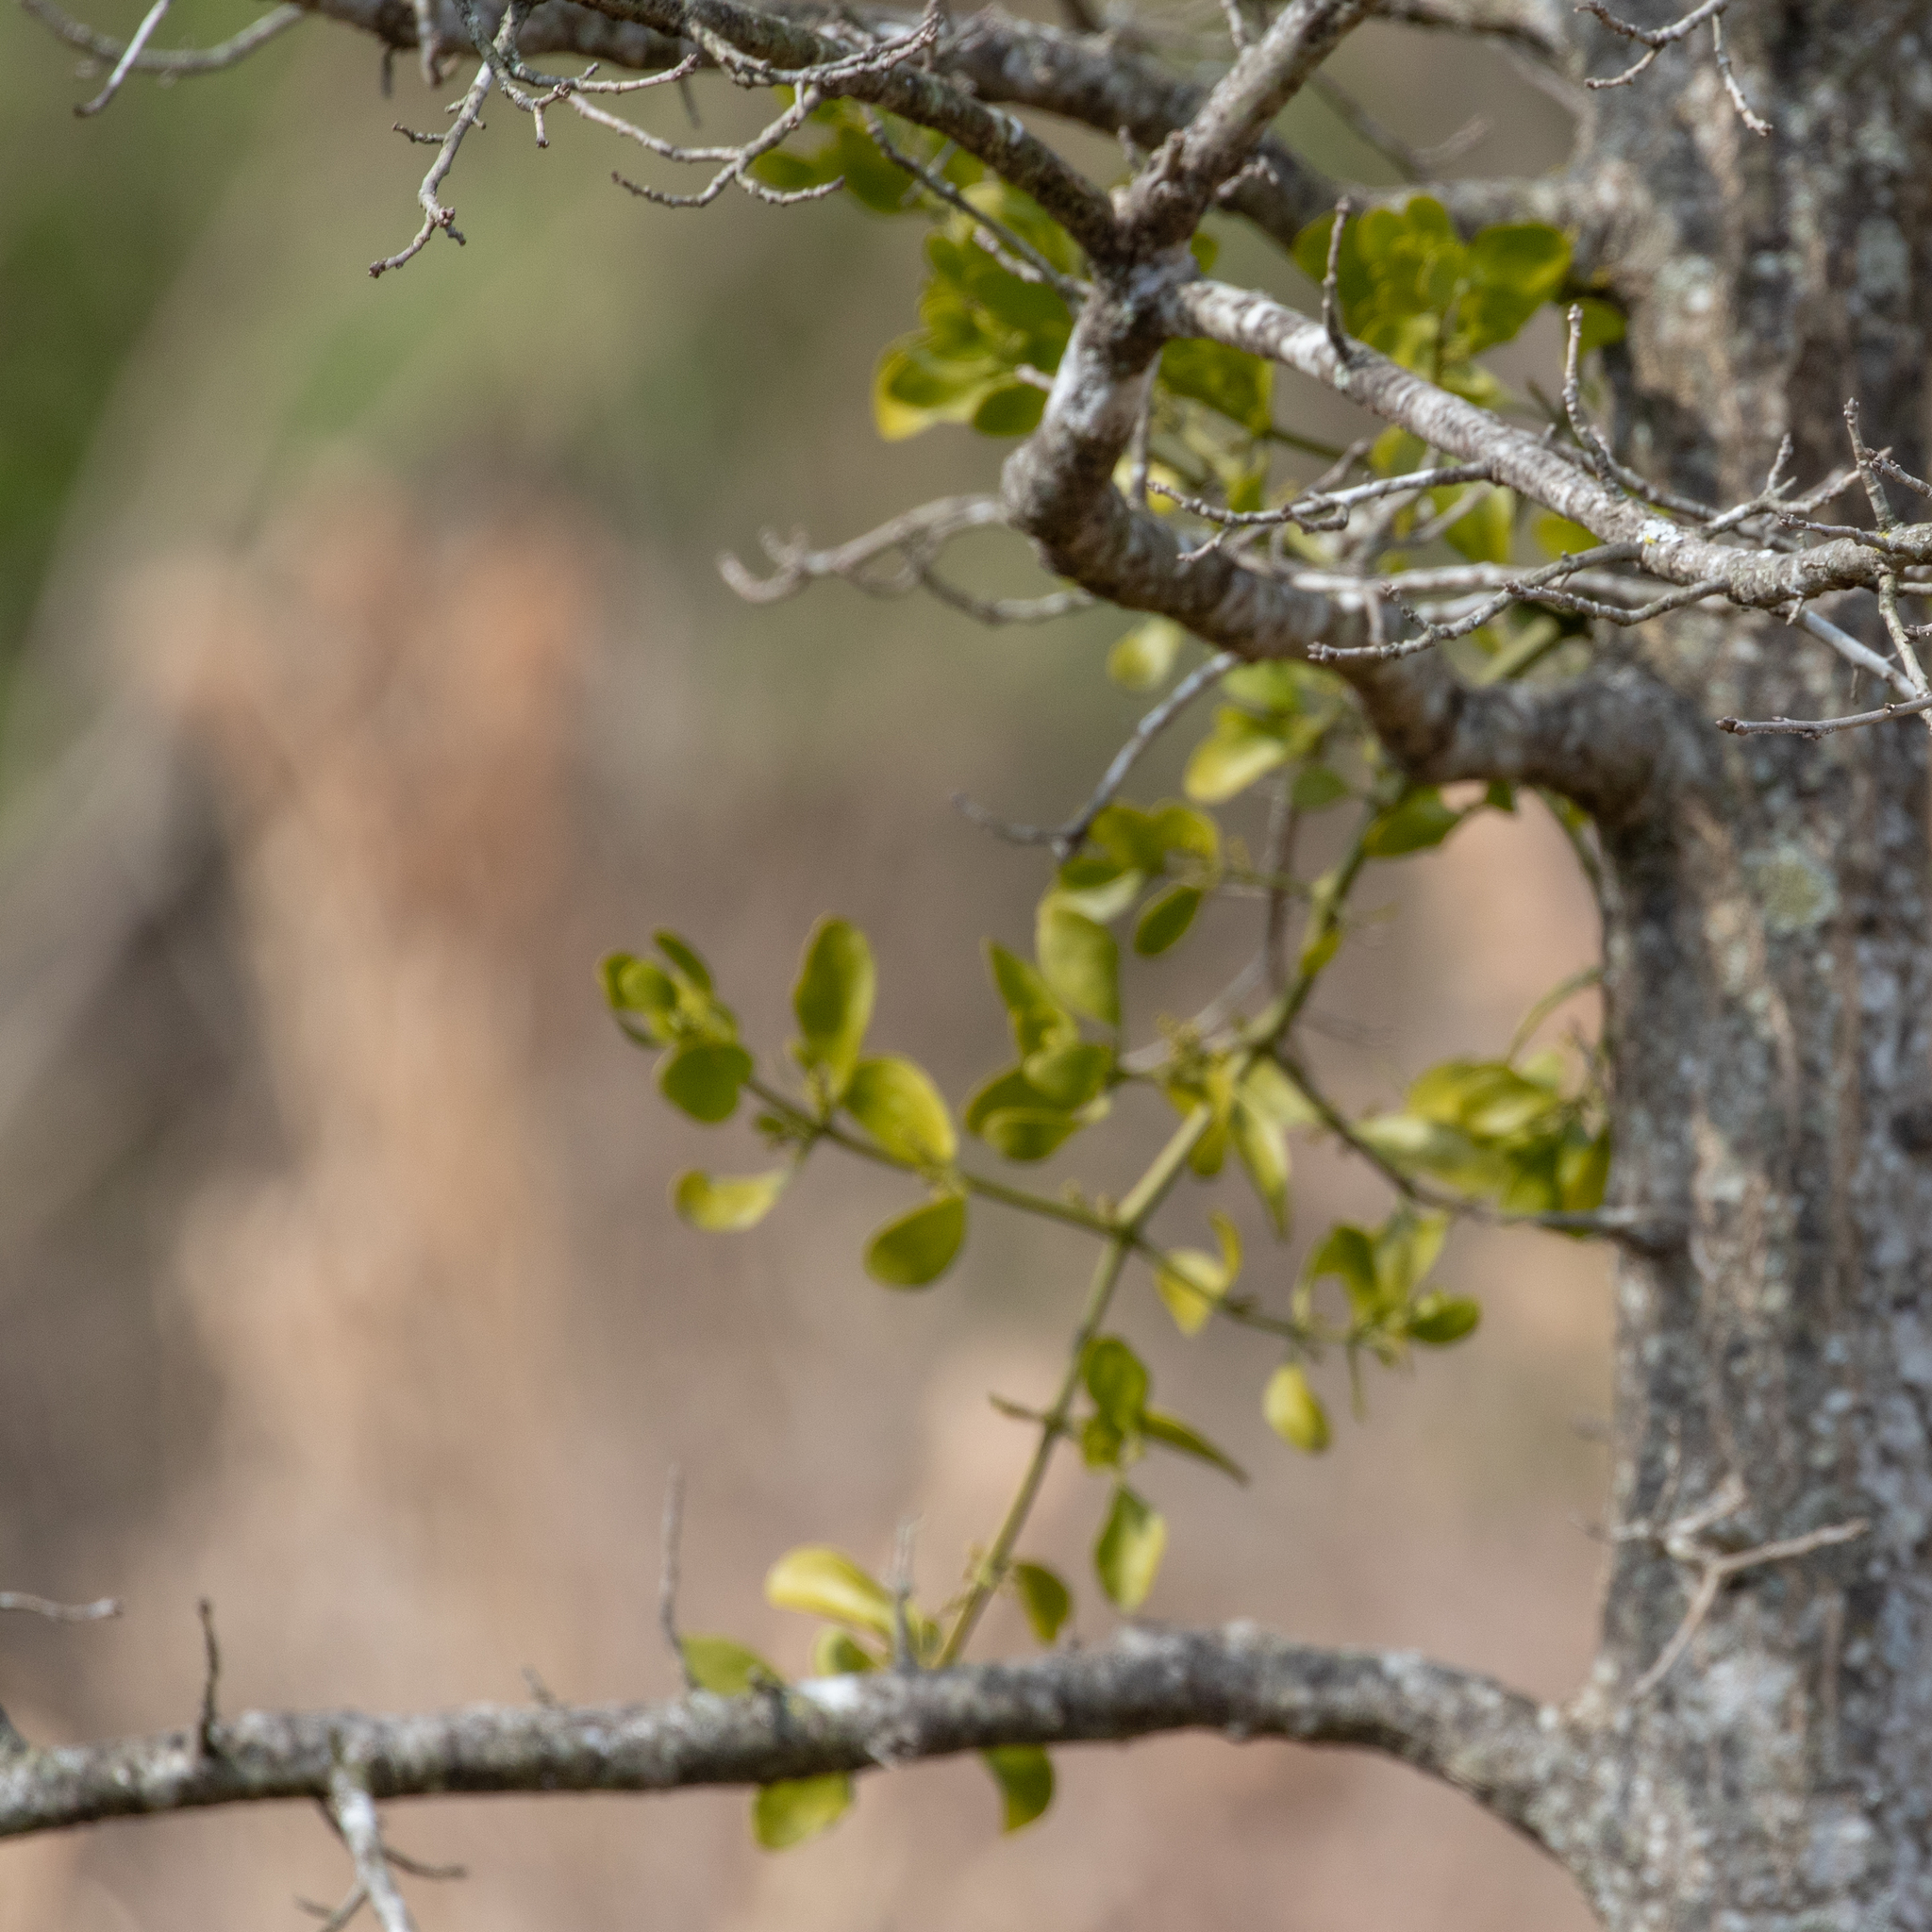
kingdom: Plantae
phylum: Tracheophyta
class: Magnoliopsida
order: Santalales
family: Viscaceae
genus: Phoradendron
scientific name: Phoradendron leucarpum
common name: Pacific mistletoe
